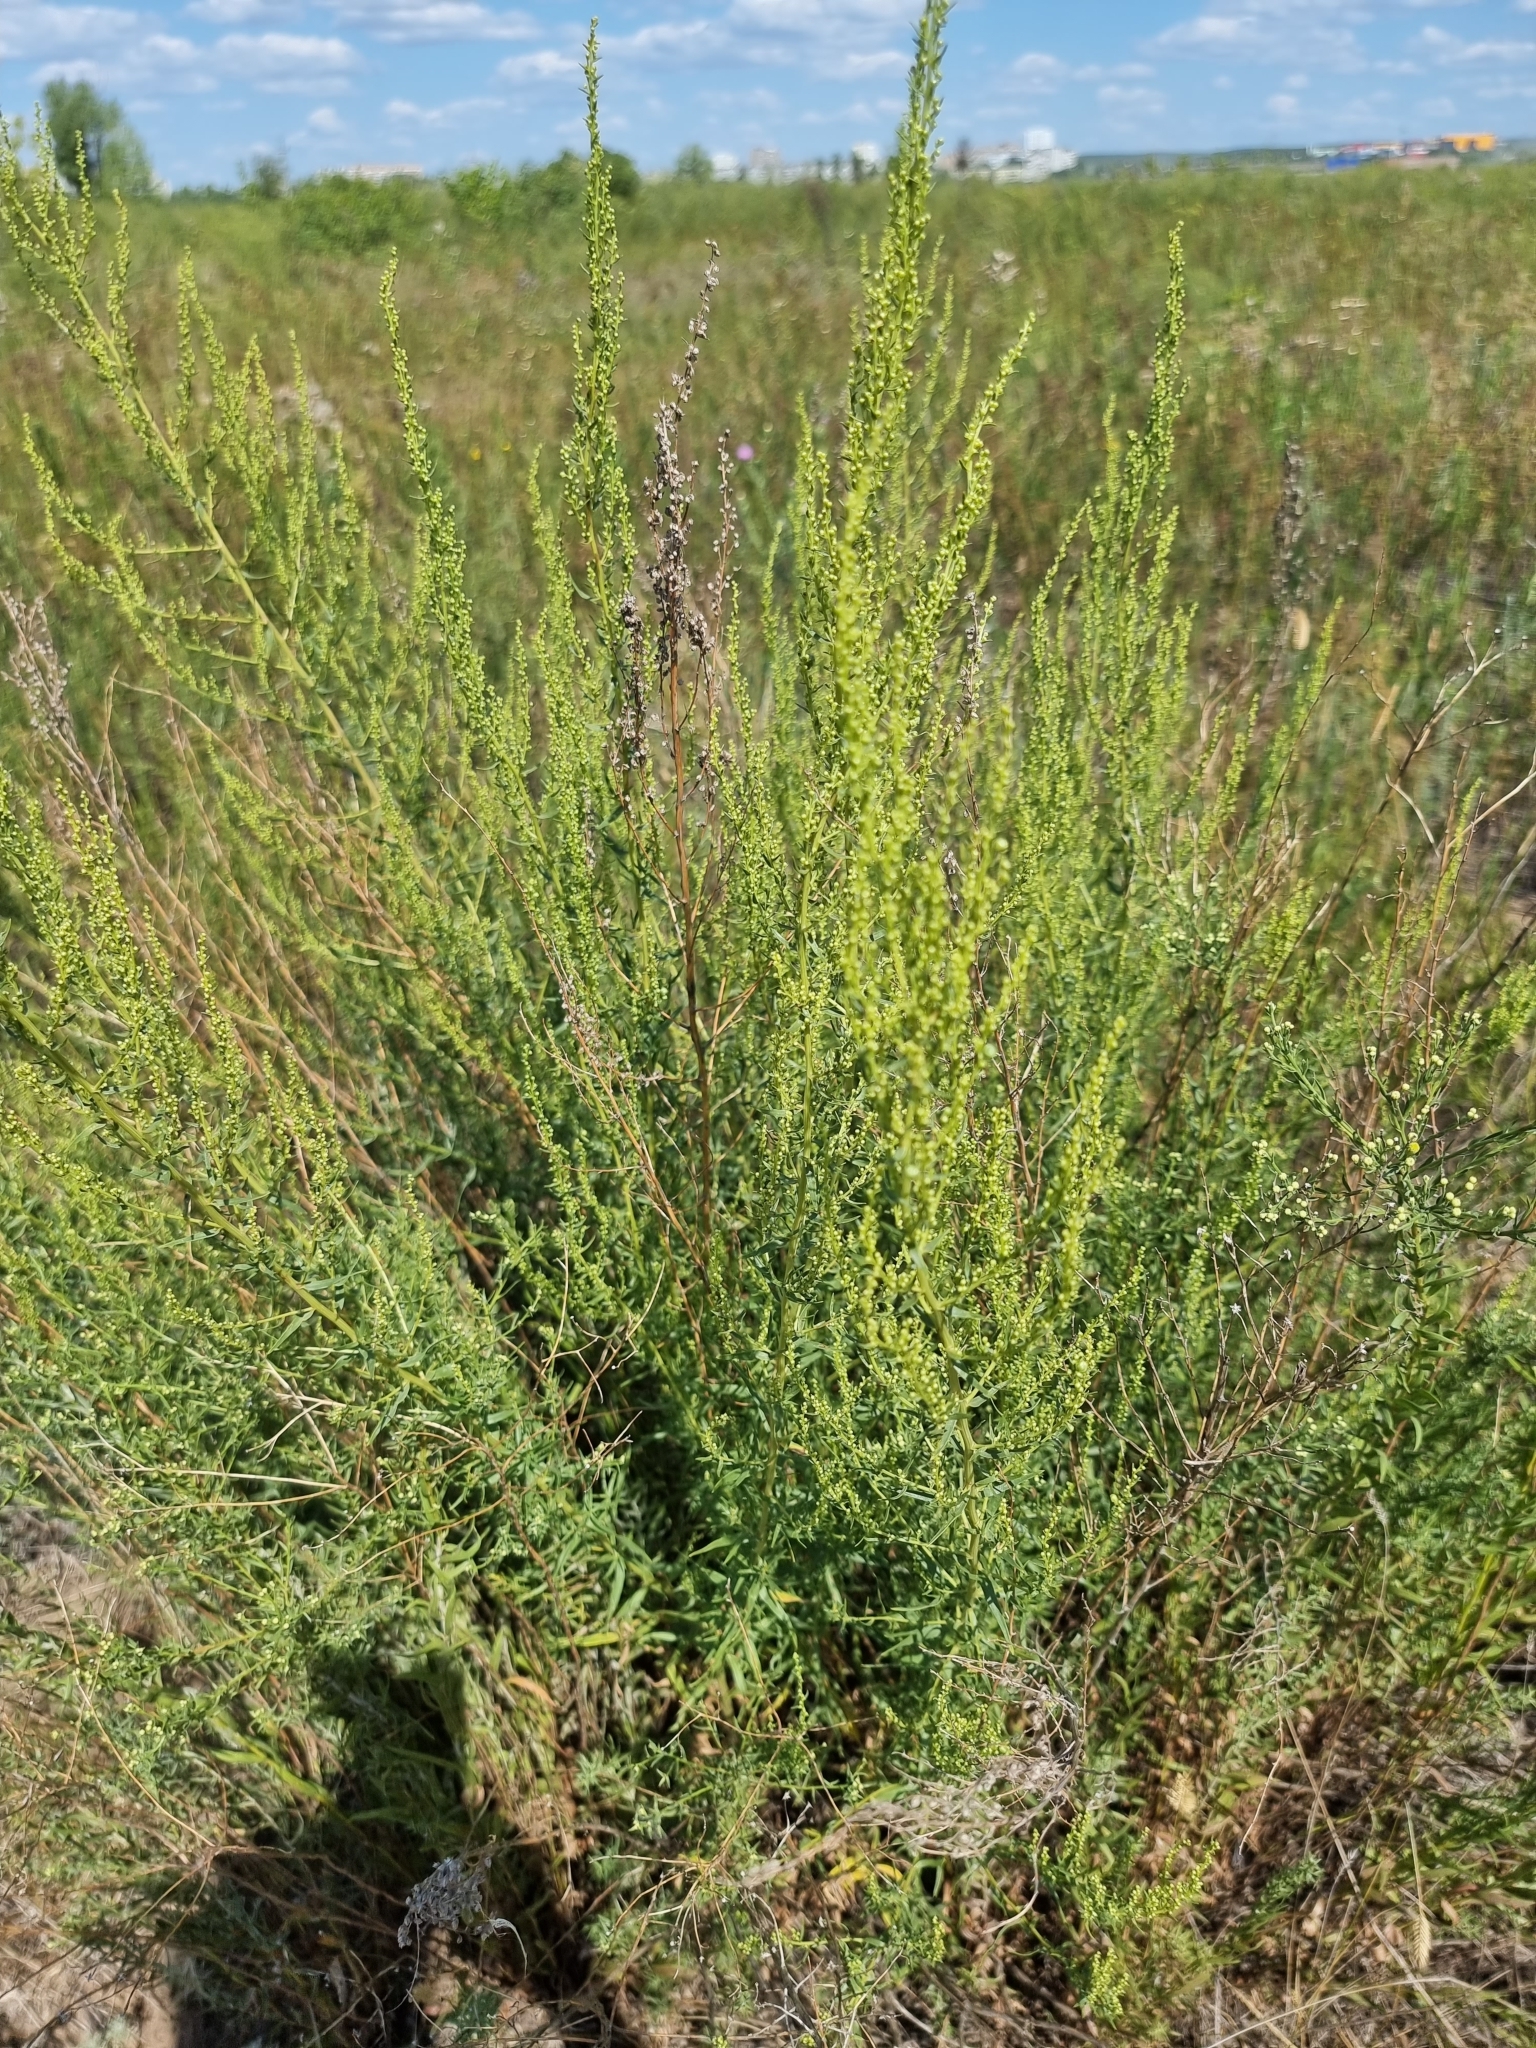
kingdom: Plantae
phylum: Tracheophyta
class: Magnoliopsida
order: Asterales
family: Asteraceae
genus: Artemisia
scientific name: Artemisia dracunculus
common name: Tarragon
